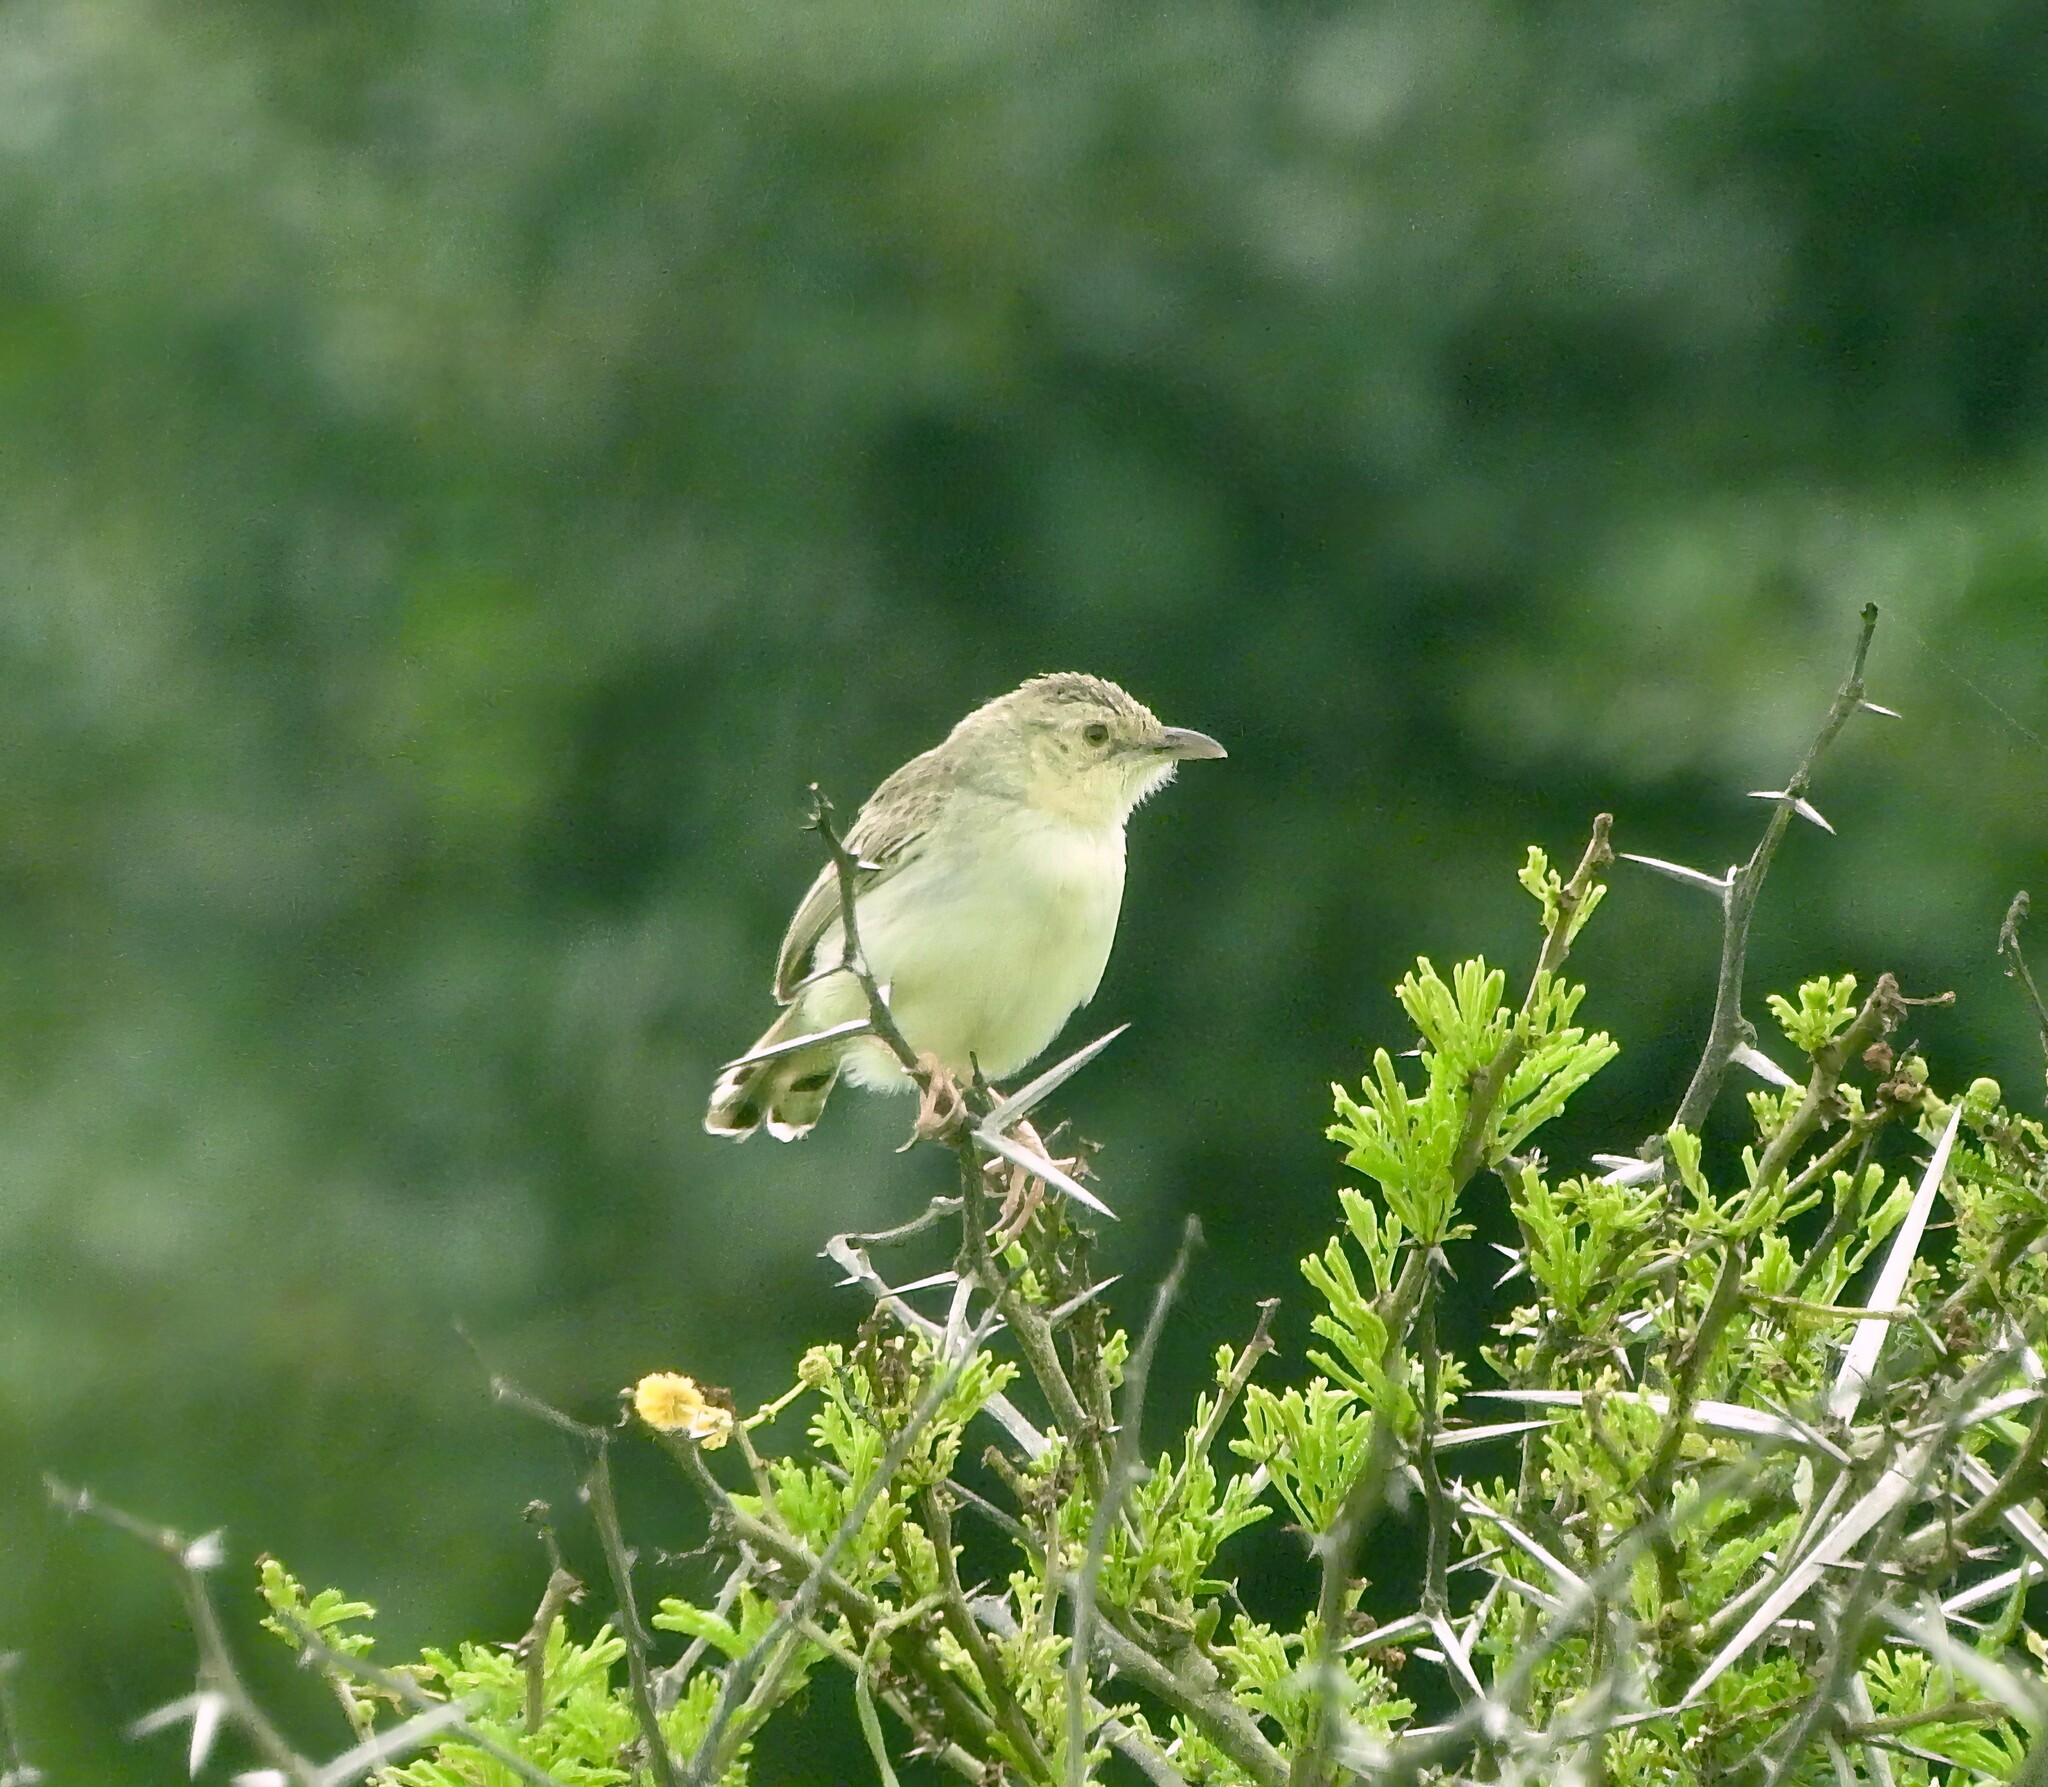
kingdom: Animalia
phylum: Chordata
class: Aves
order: Passeriformes
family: Cisticolidae
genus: Cisticola
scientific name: Cisticola natalensis
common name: Croaking cisticola
